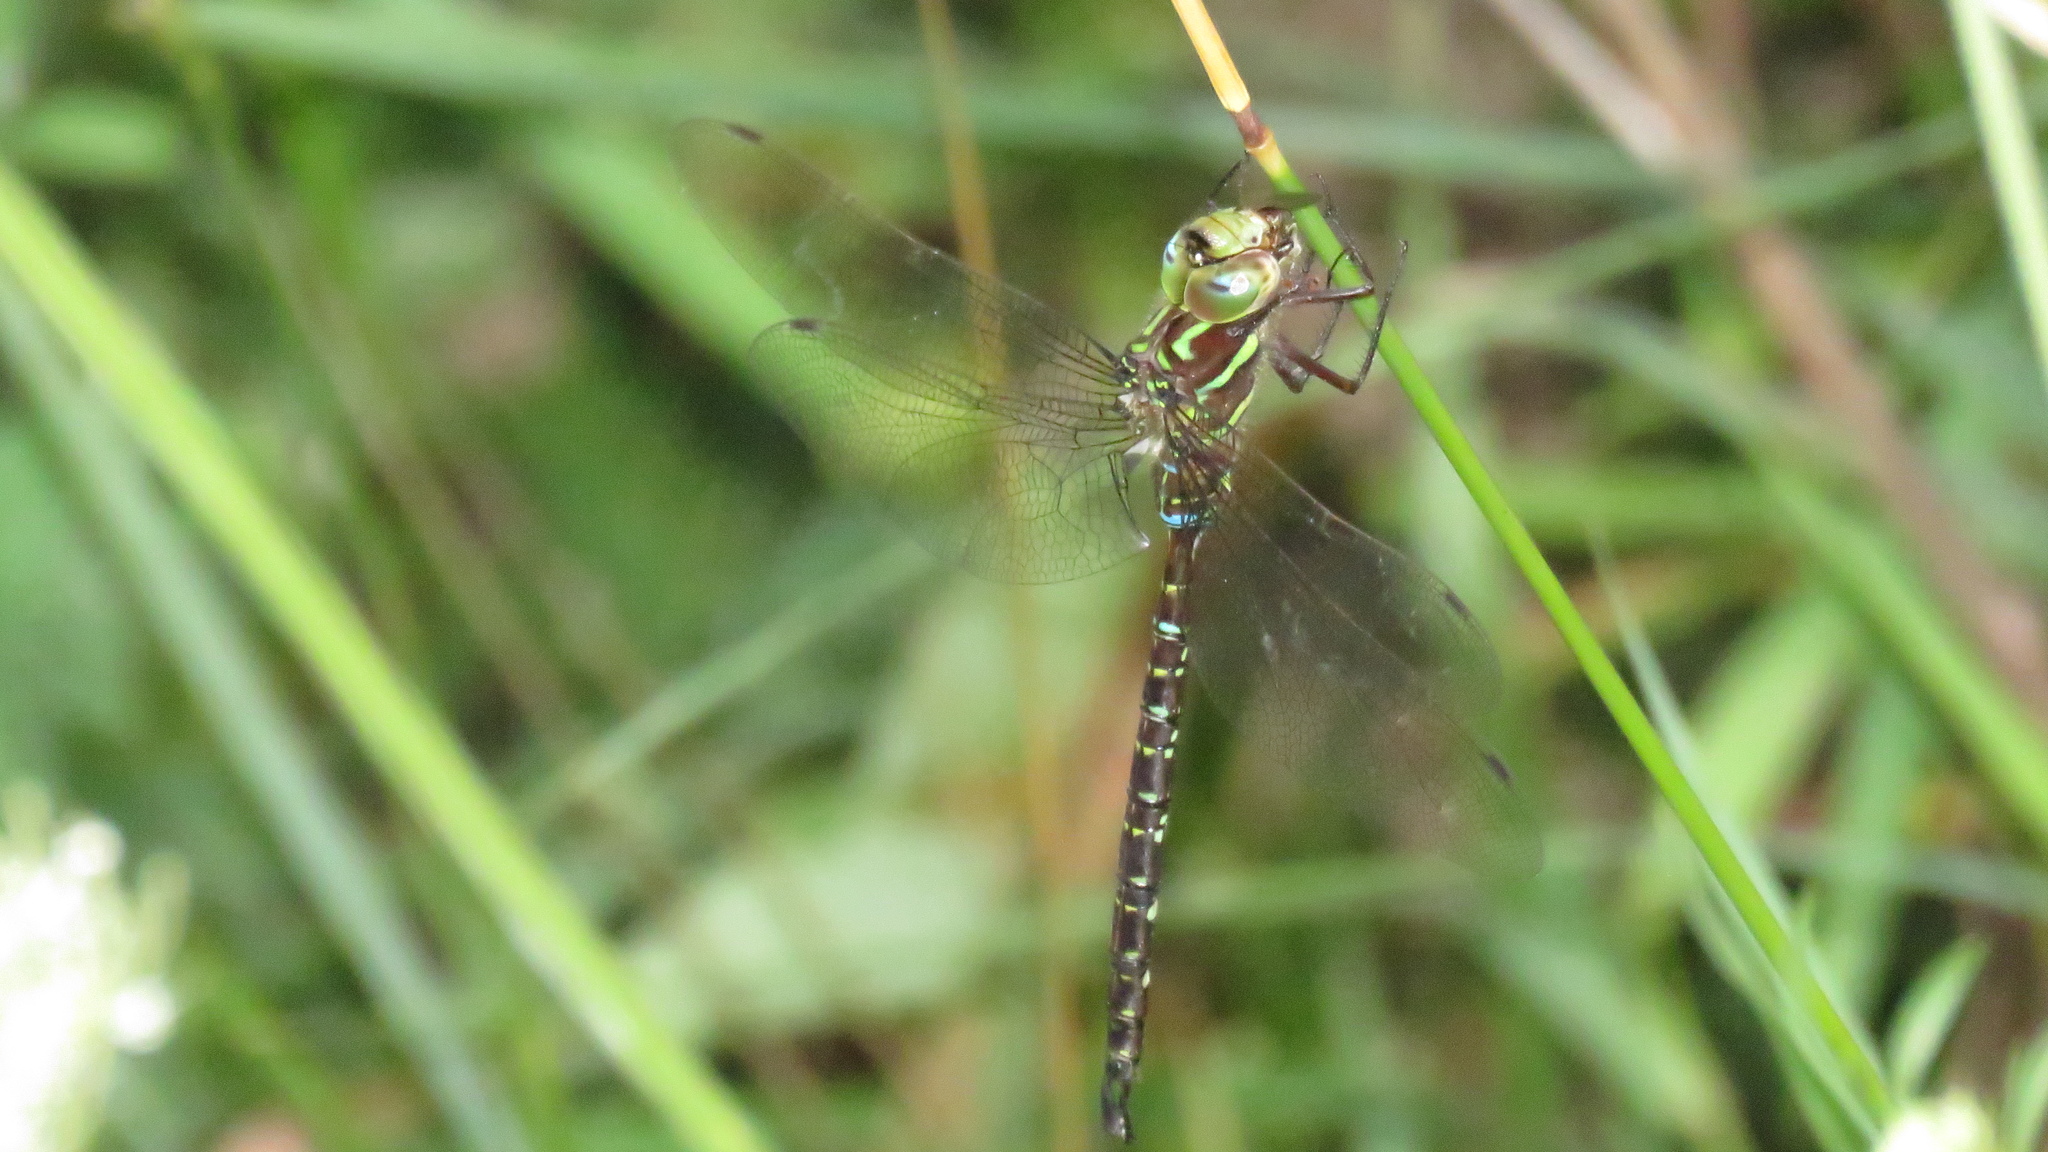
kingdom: Animalia
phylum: Arthropoda
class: Insecta
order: Odonata
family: Aeshnidae
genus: Aeshna
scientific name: Aeshna umbrosa
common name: Shadow darner
